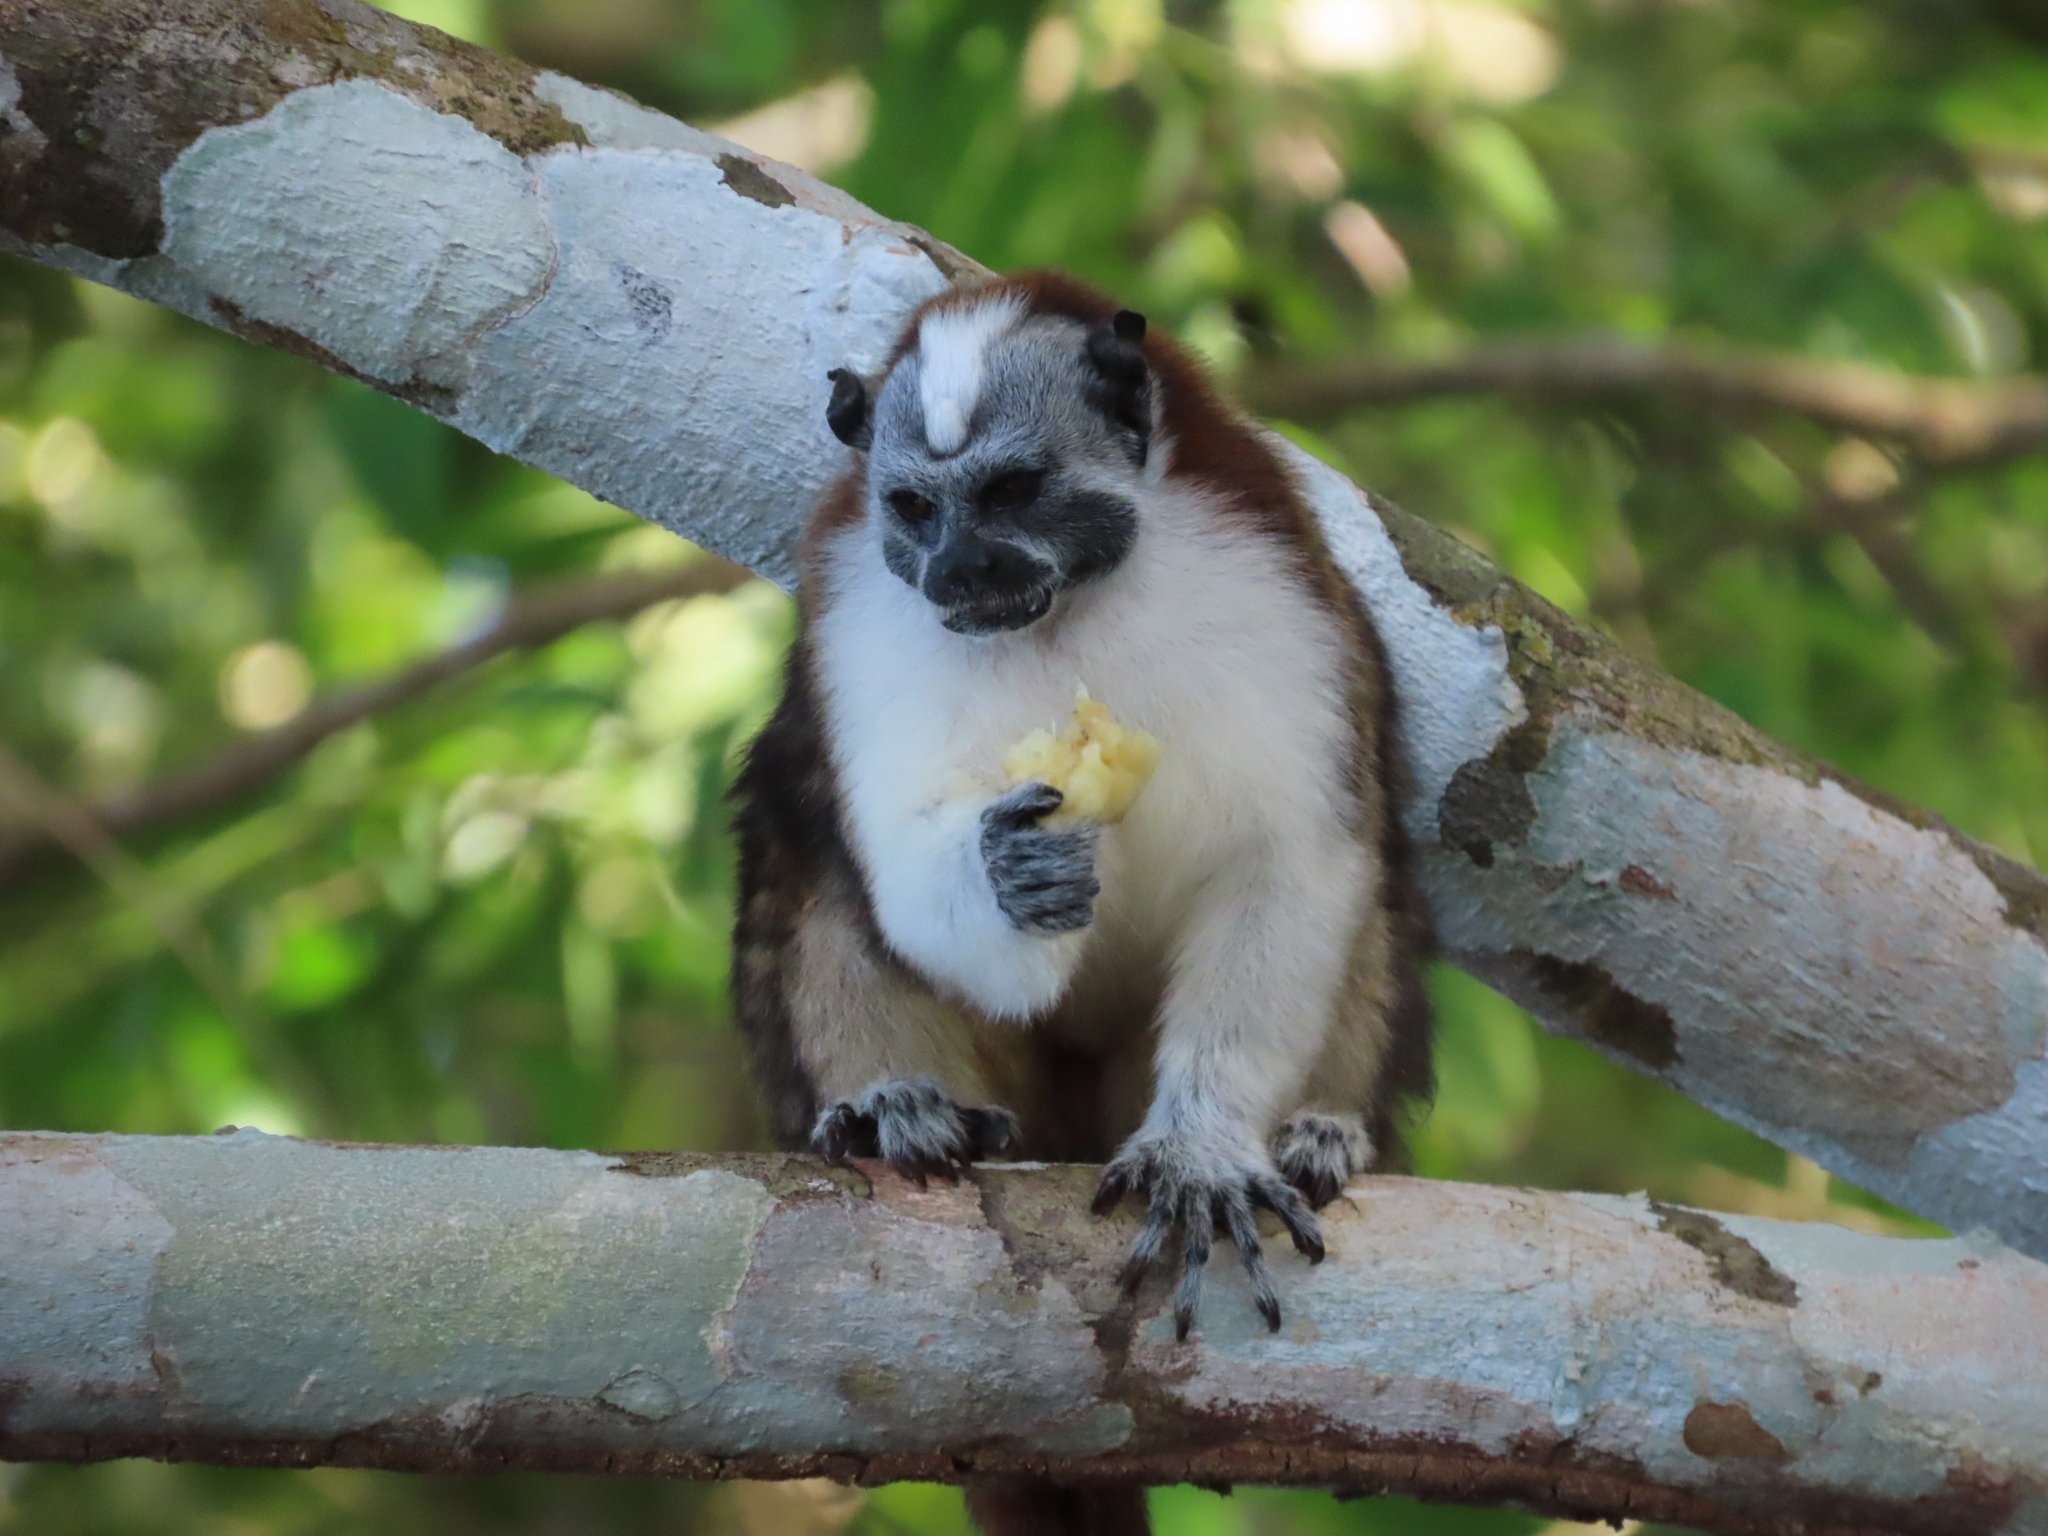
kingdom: Animalia
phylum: Chordata
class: Mammalia
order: Primates
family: Callitrichidae
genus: Saguinus
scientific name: Saguinus geoffroyi
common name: Geoffroy s tamarin
